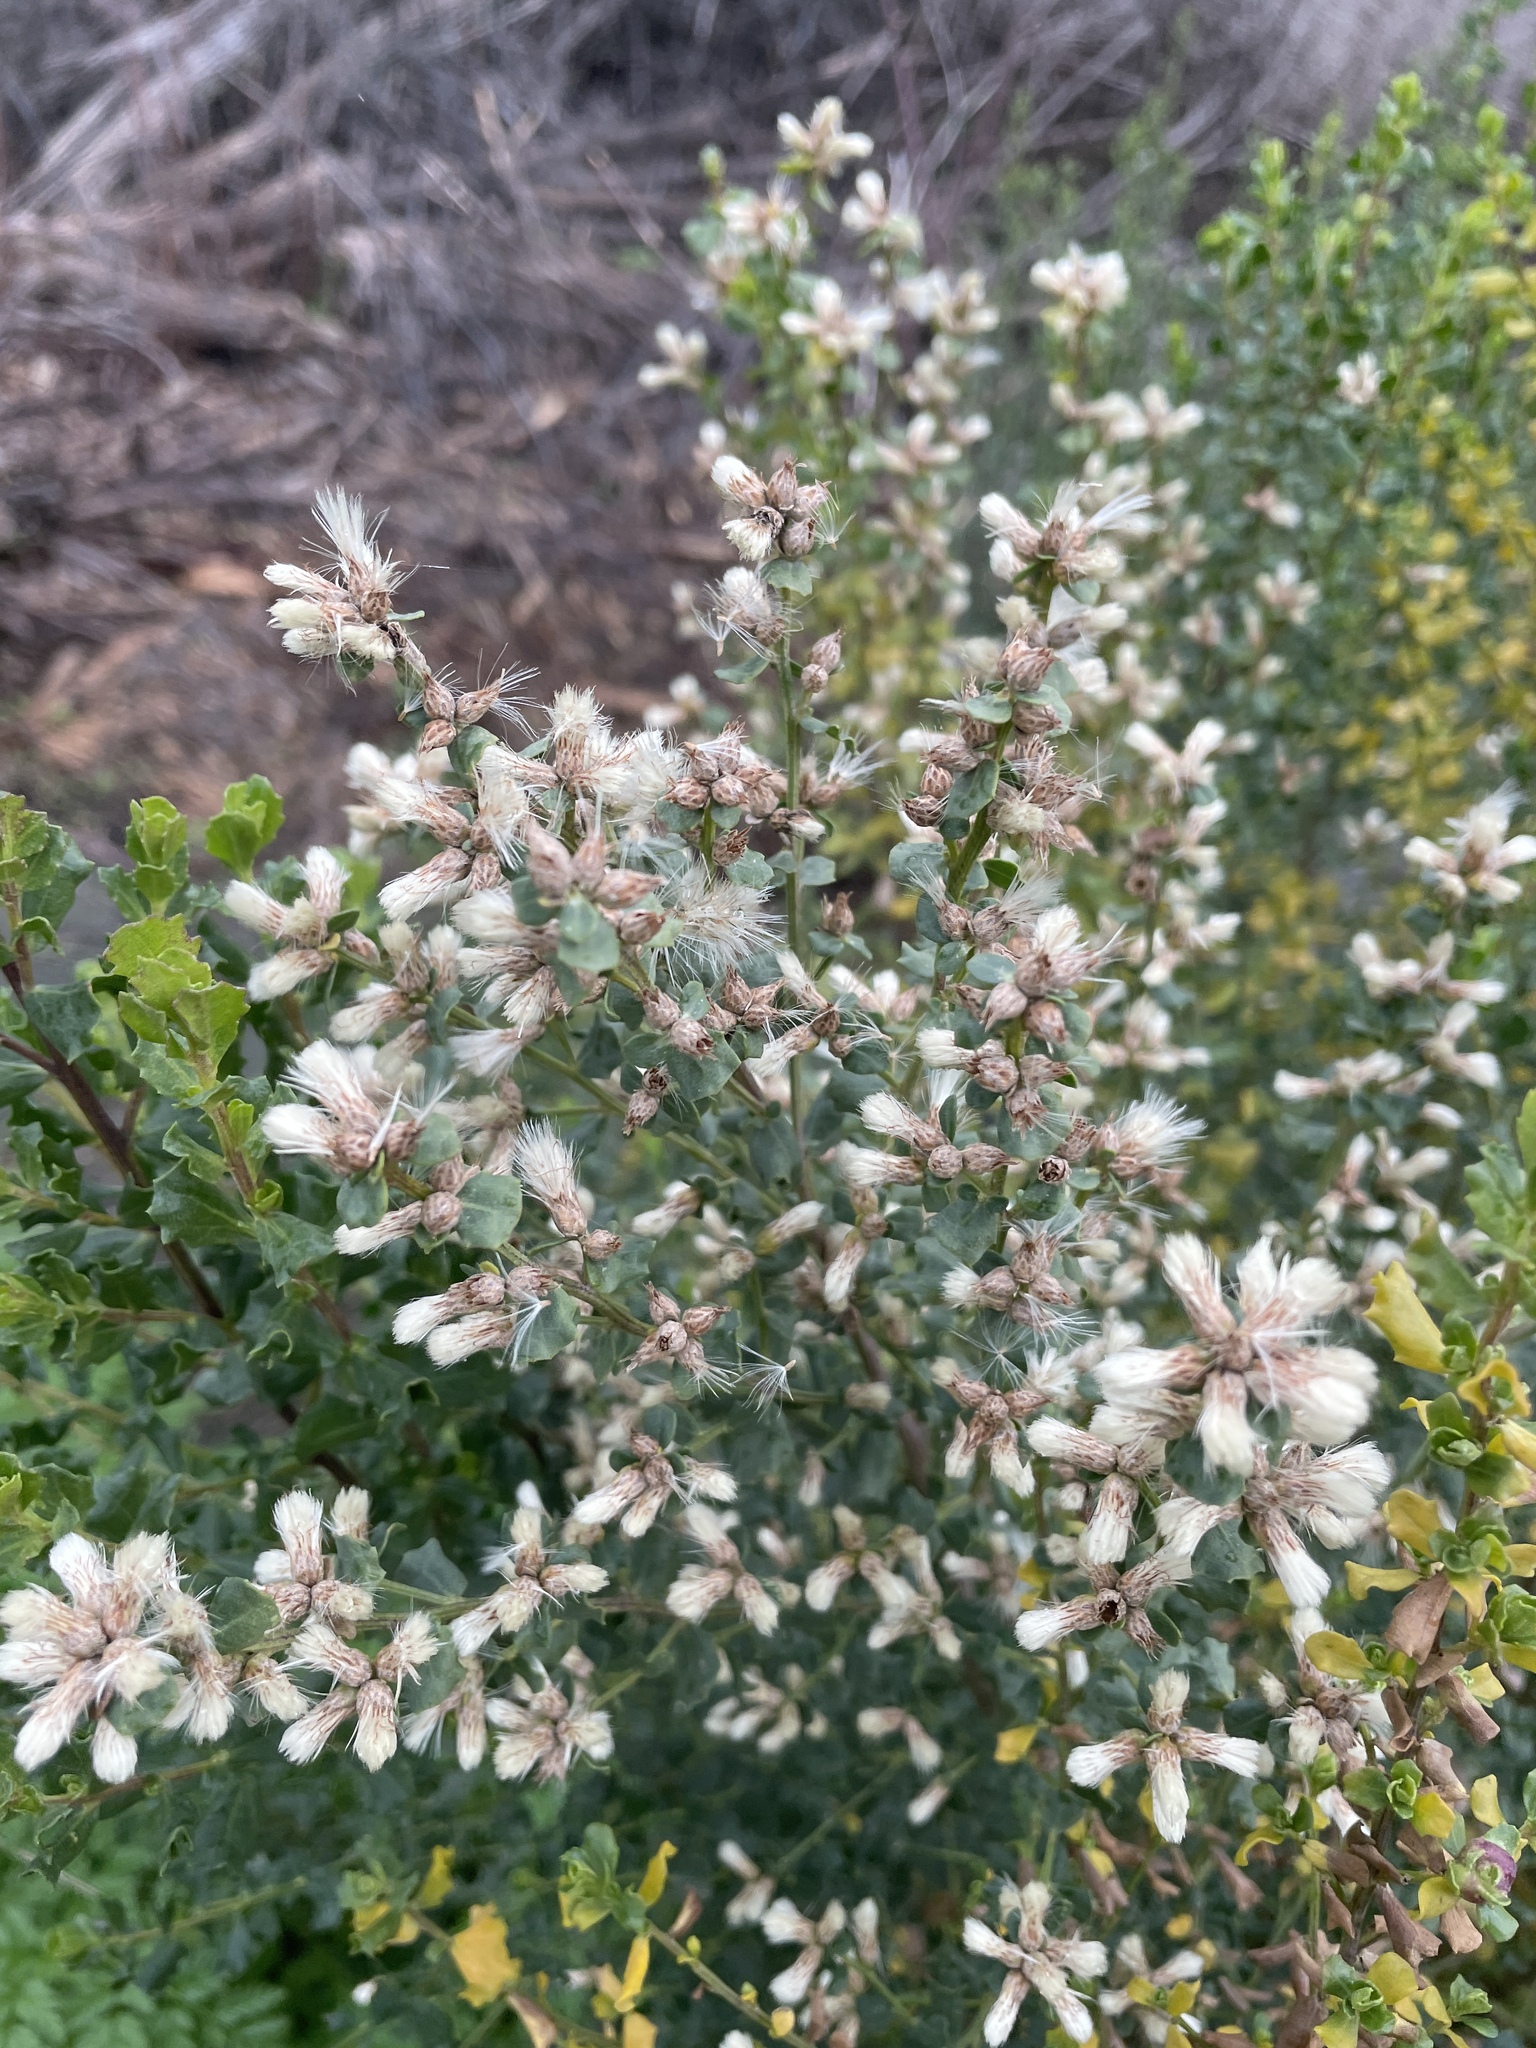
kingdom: Plantae
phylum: Tracheophyta
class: Magnoliopsida
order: Asterales
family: Asteraceae
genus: Baccharis
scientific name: Baccharis pilularis
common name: Coyotebrush
